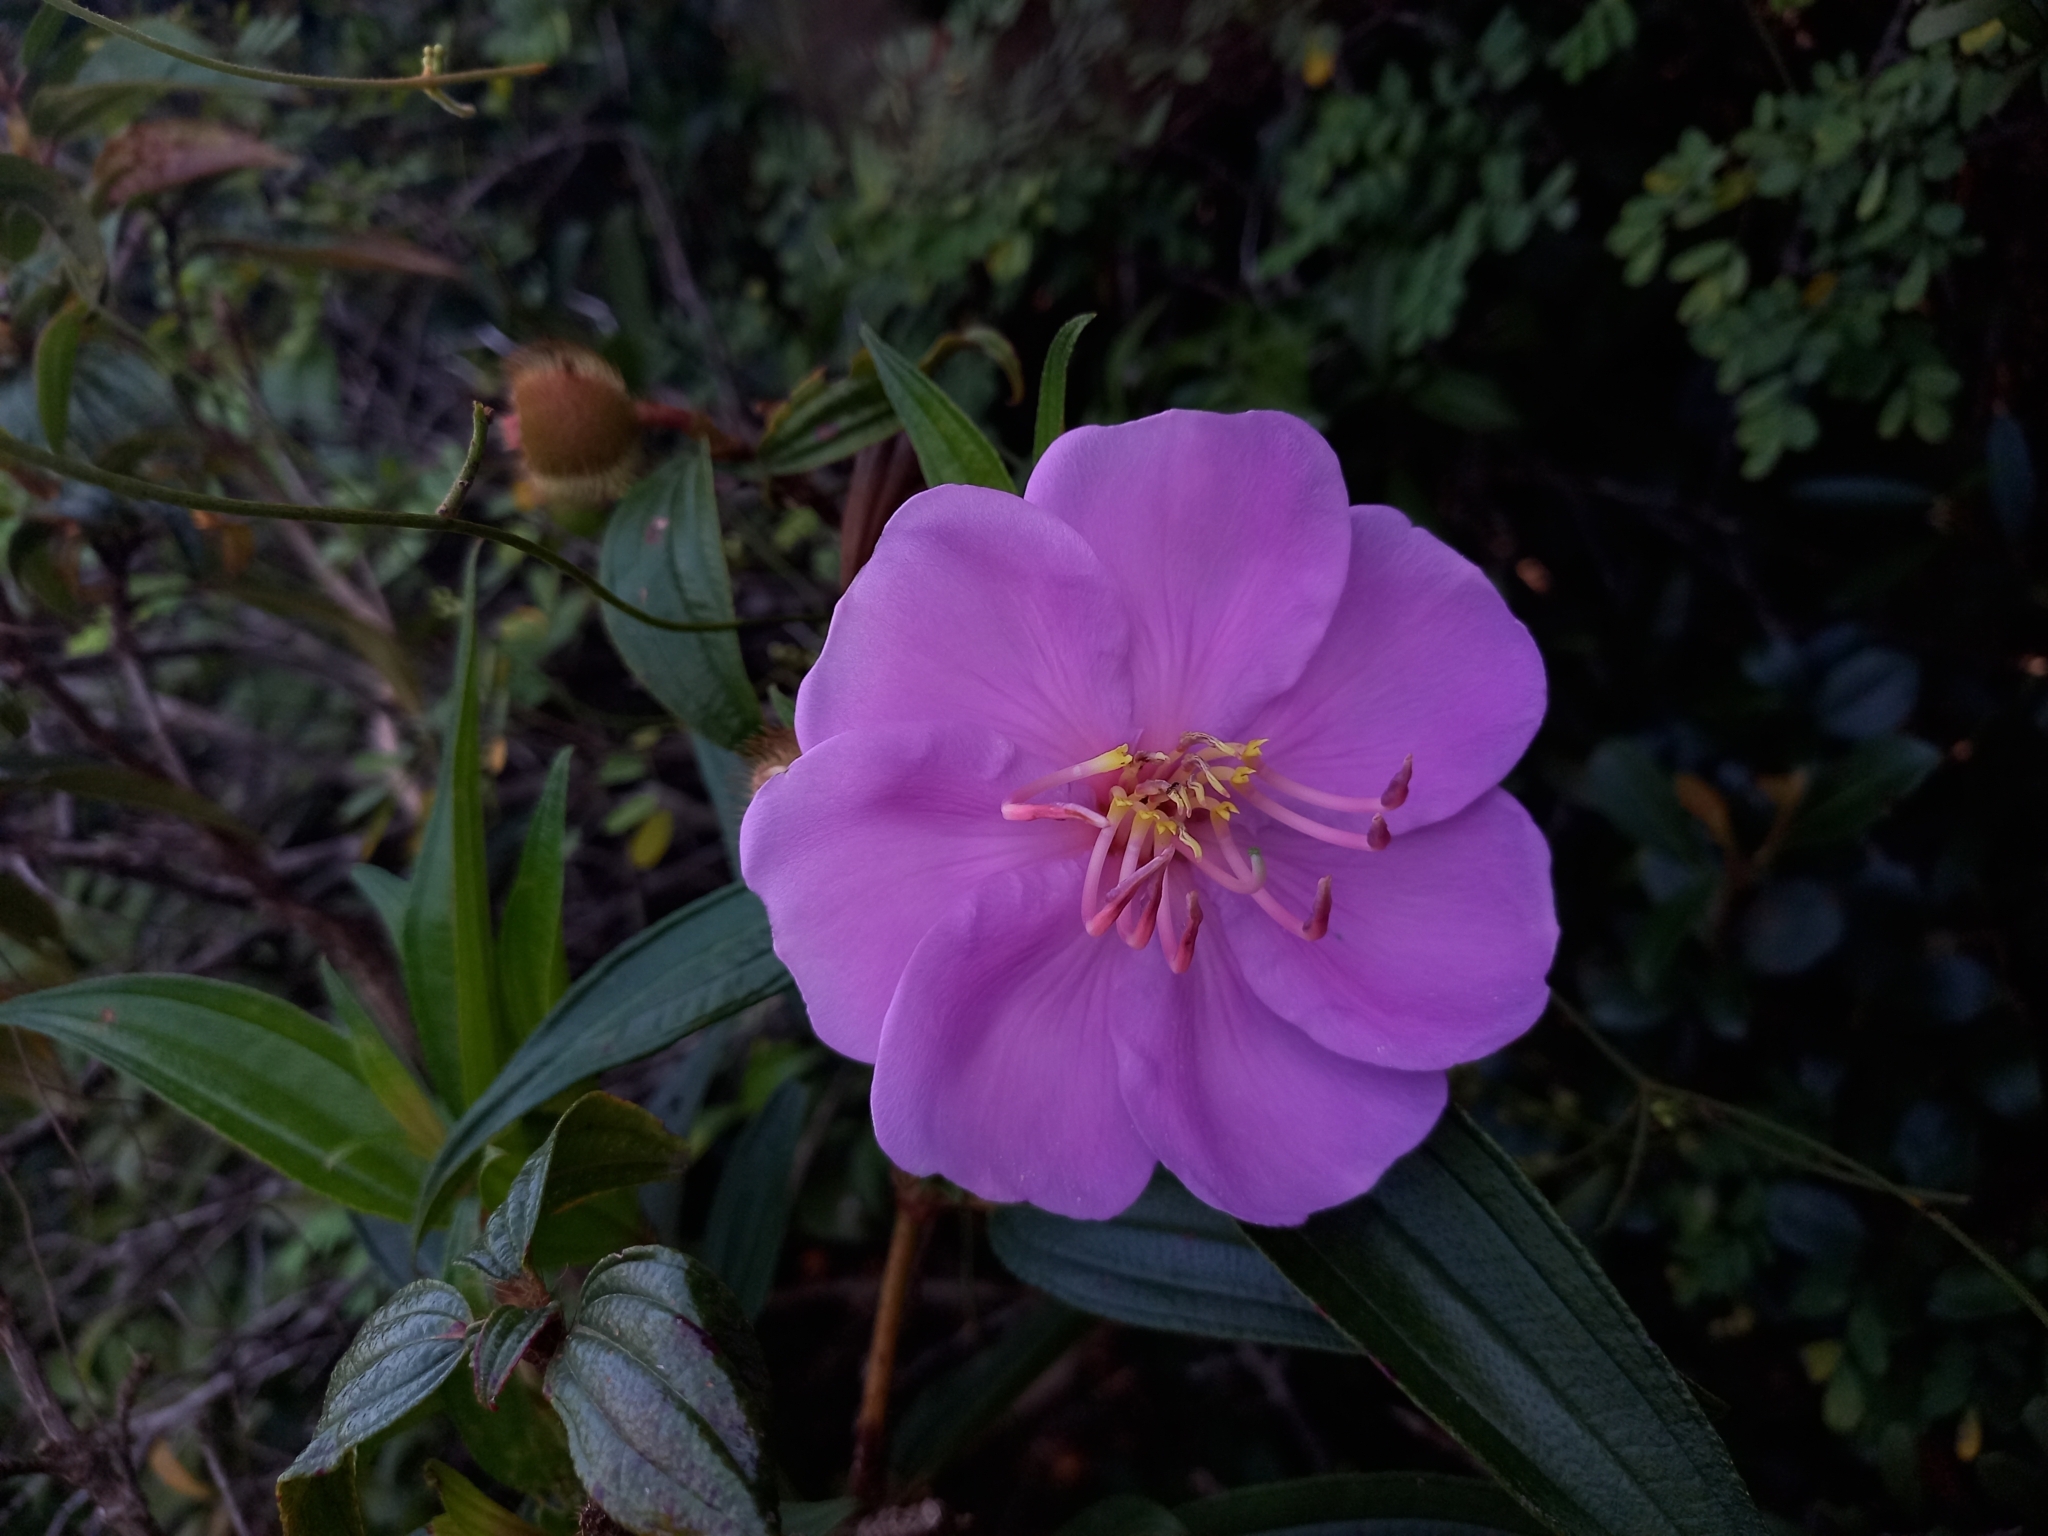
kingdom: Plantae
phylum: Tracheophyta
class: Magnoliopsida
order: Myrtales
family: Melastomataceae
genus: Melastoma
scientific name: Melastoma sanguineum
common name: Red melastome
